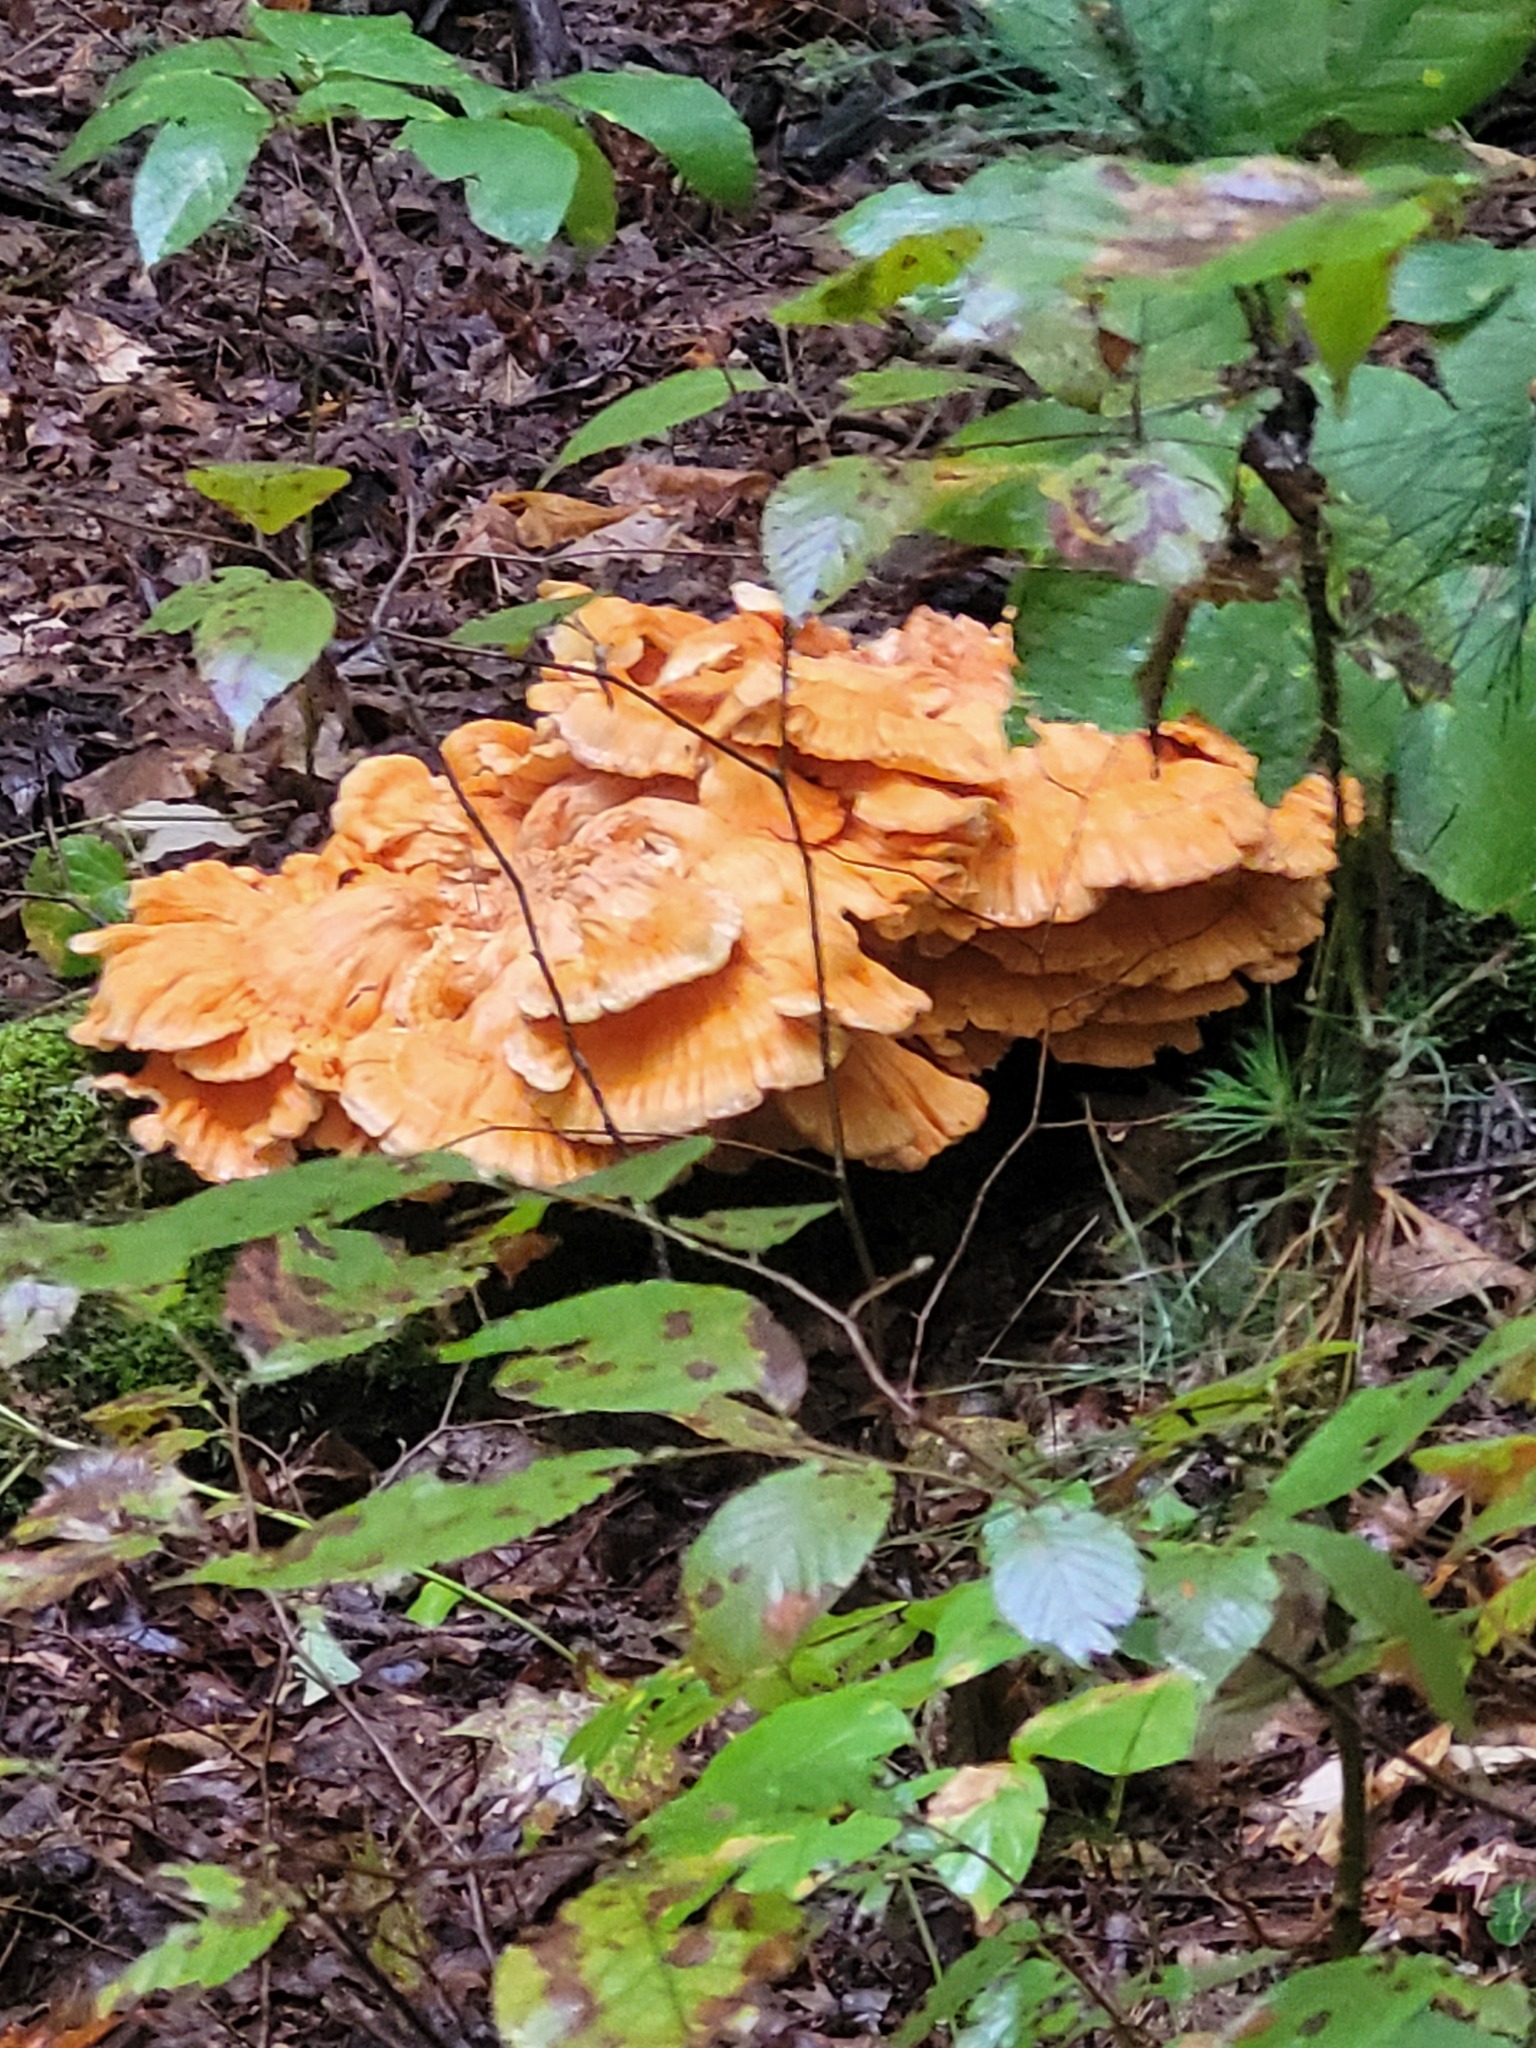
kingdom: Fungi
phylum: Basidiomycota
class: Agaricomycetes
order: Polyporales
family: Laetiporaceae
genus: Laetiporus
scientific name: Laetiporus sulphureus
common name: Chicken of the woods
